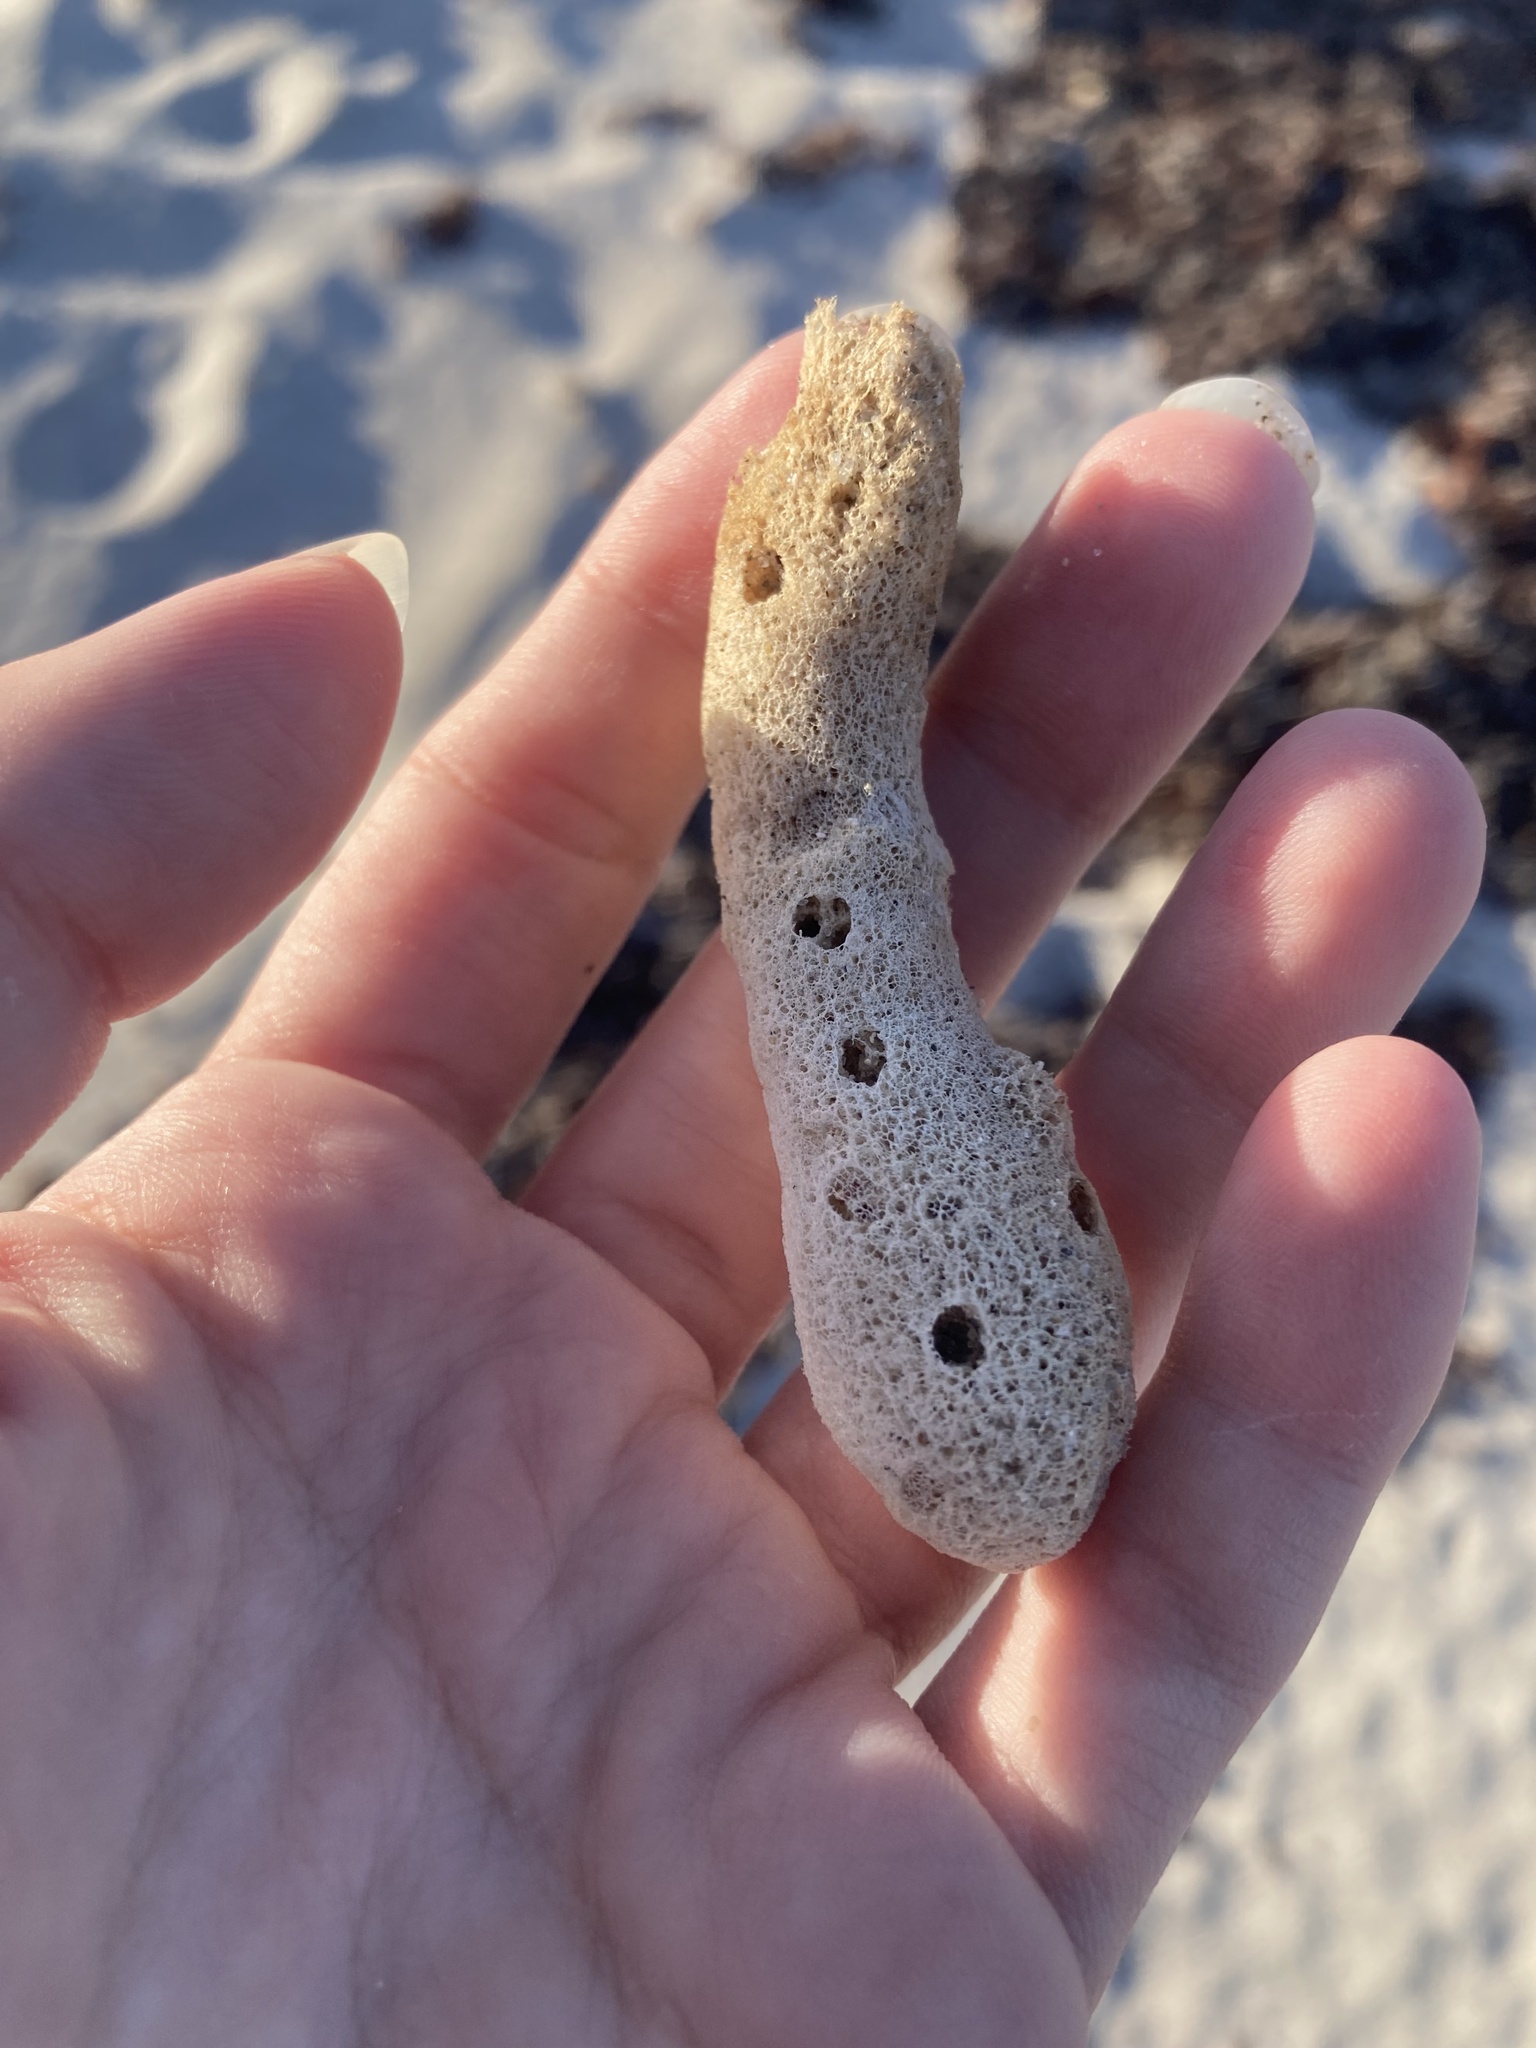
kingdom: Animalia
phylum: Porifera
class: Demospongiae
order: Haplosclerida
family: Niphatidae
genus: Amphimedon
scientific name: Amphimedon compressa
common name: Red sponge
